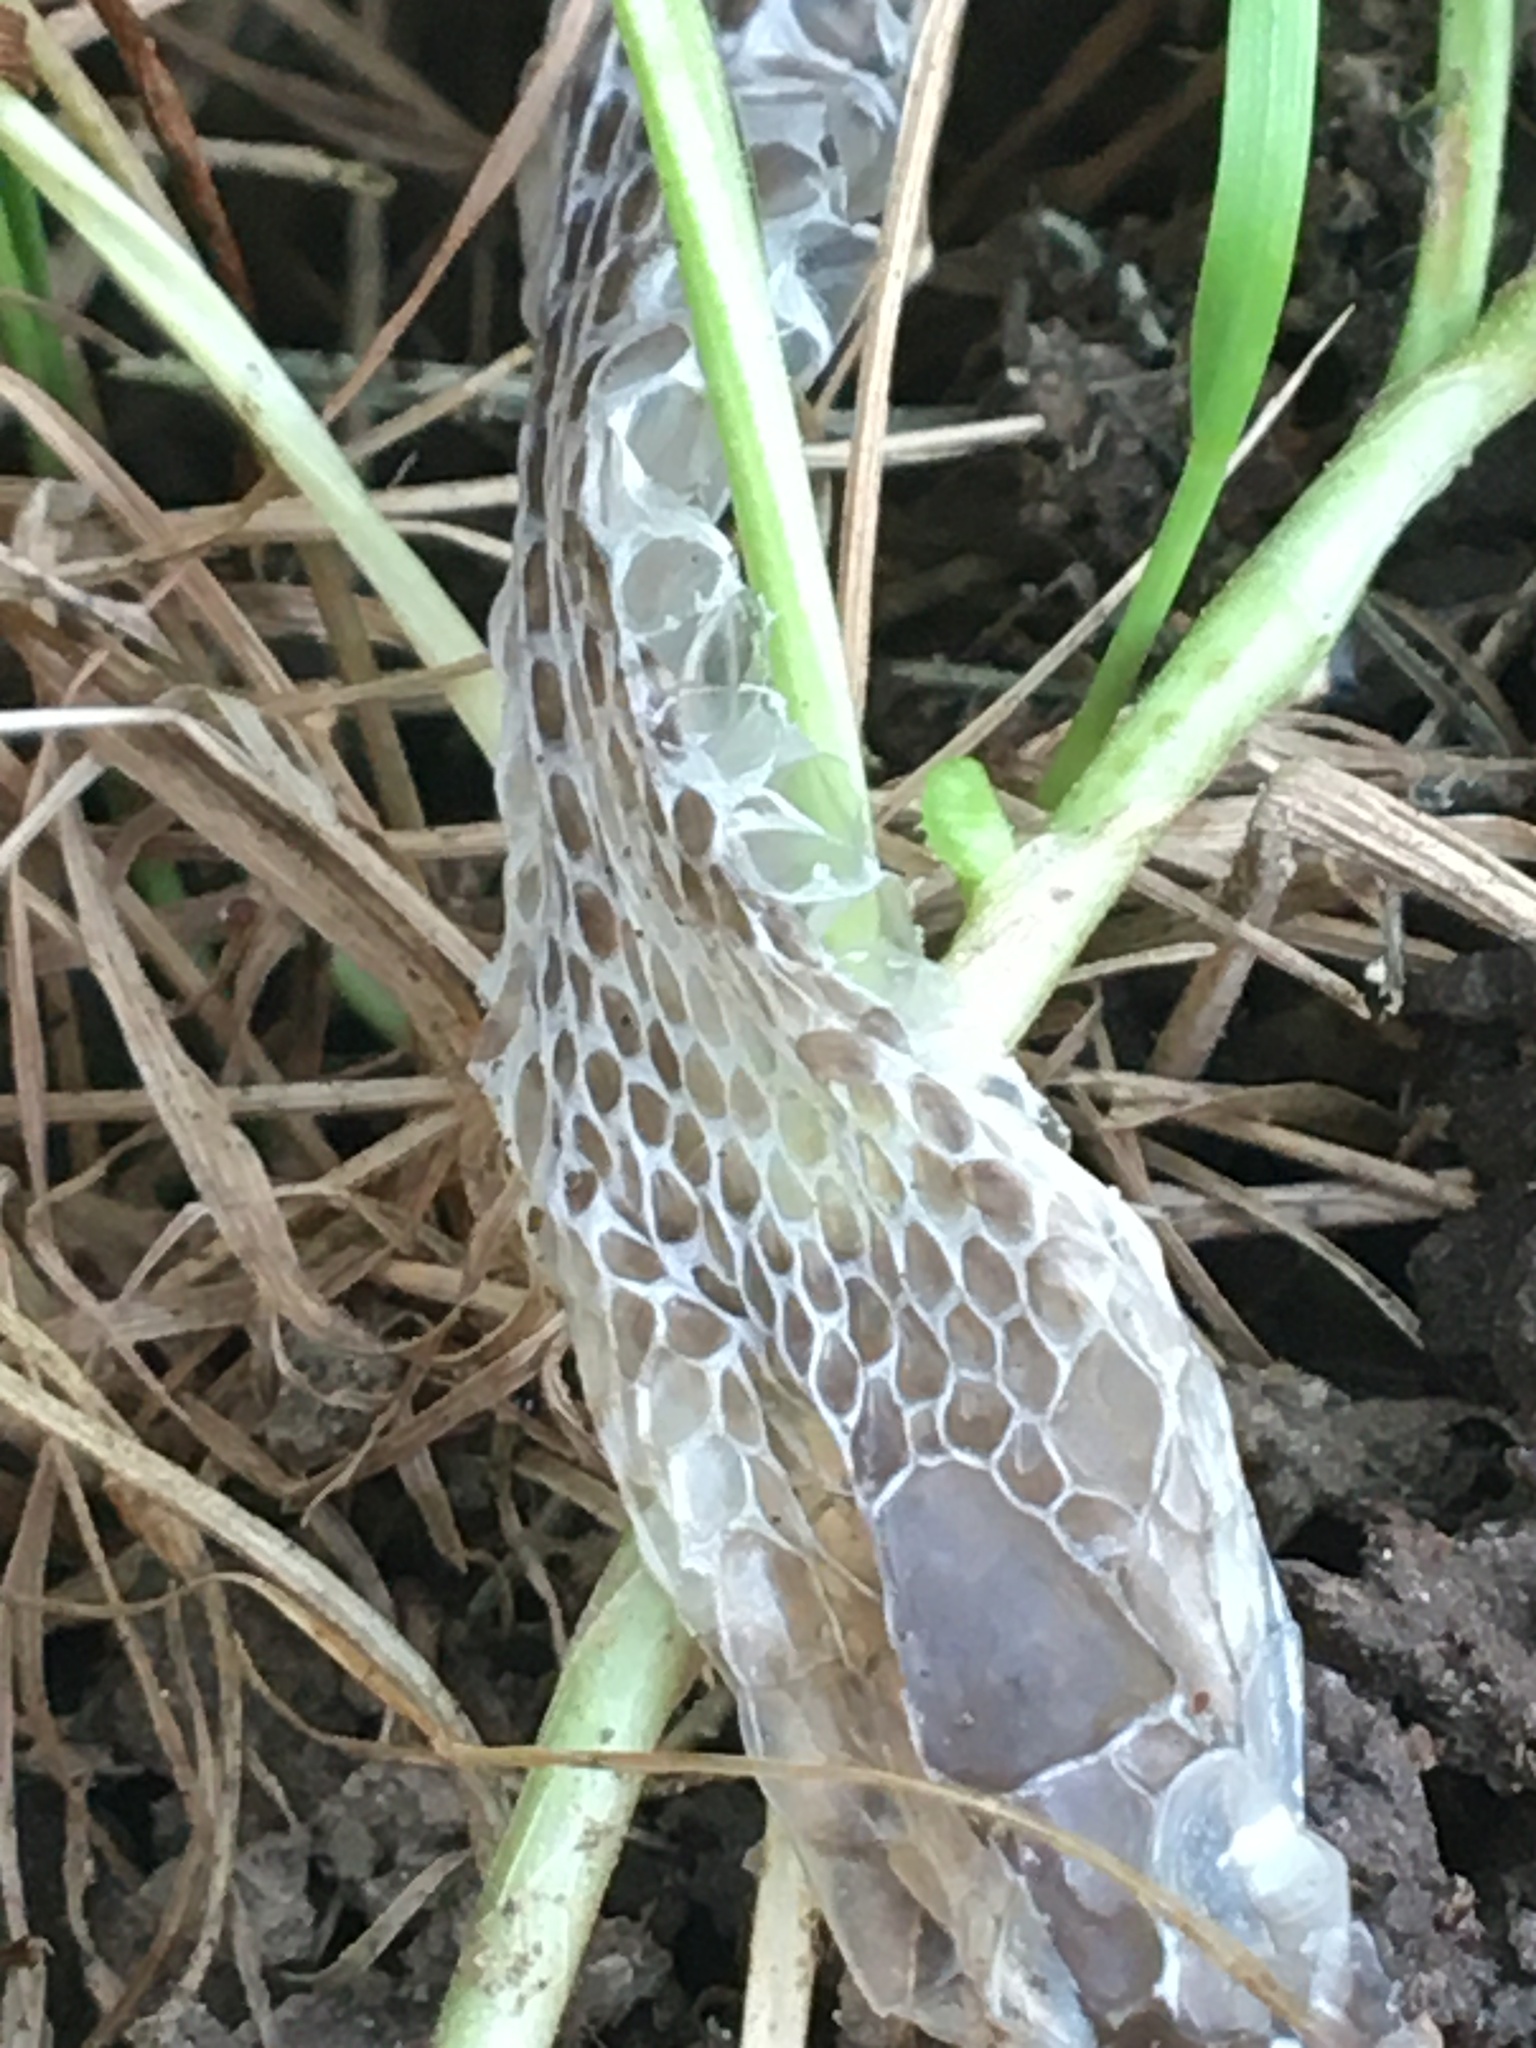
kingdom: Animalia
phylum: Chordata
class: Squamata
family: Colubridae
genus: Thamnophis
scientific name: Thamnophis sirtalis
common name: Common garter snake
